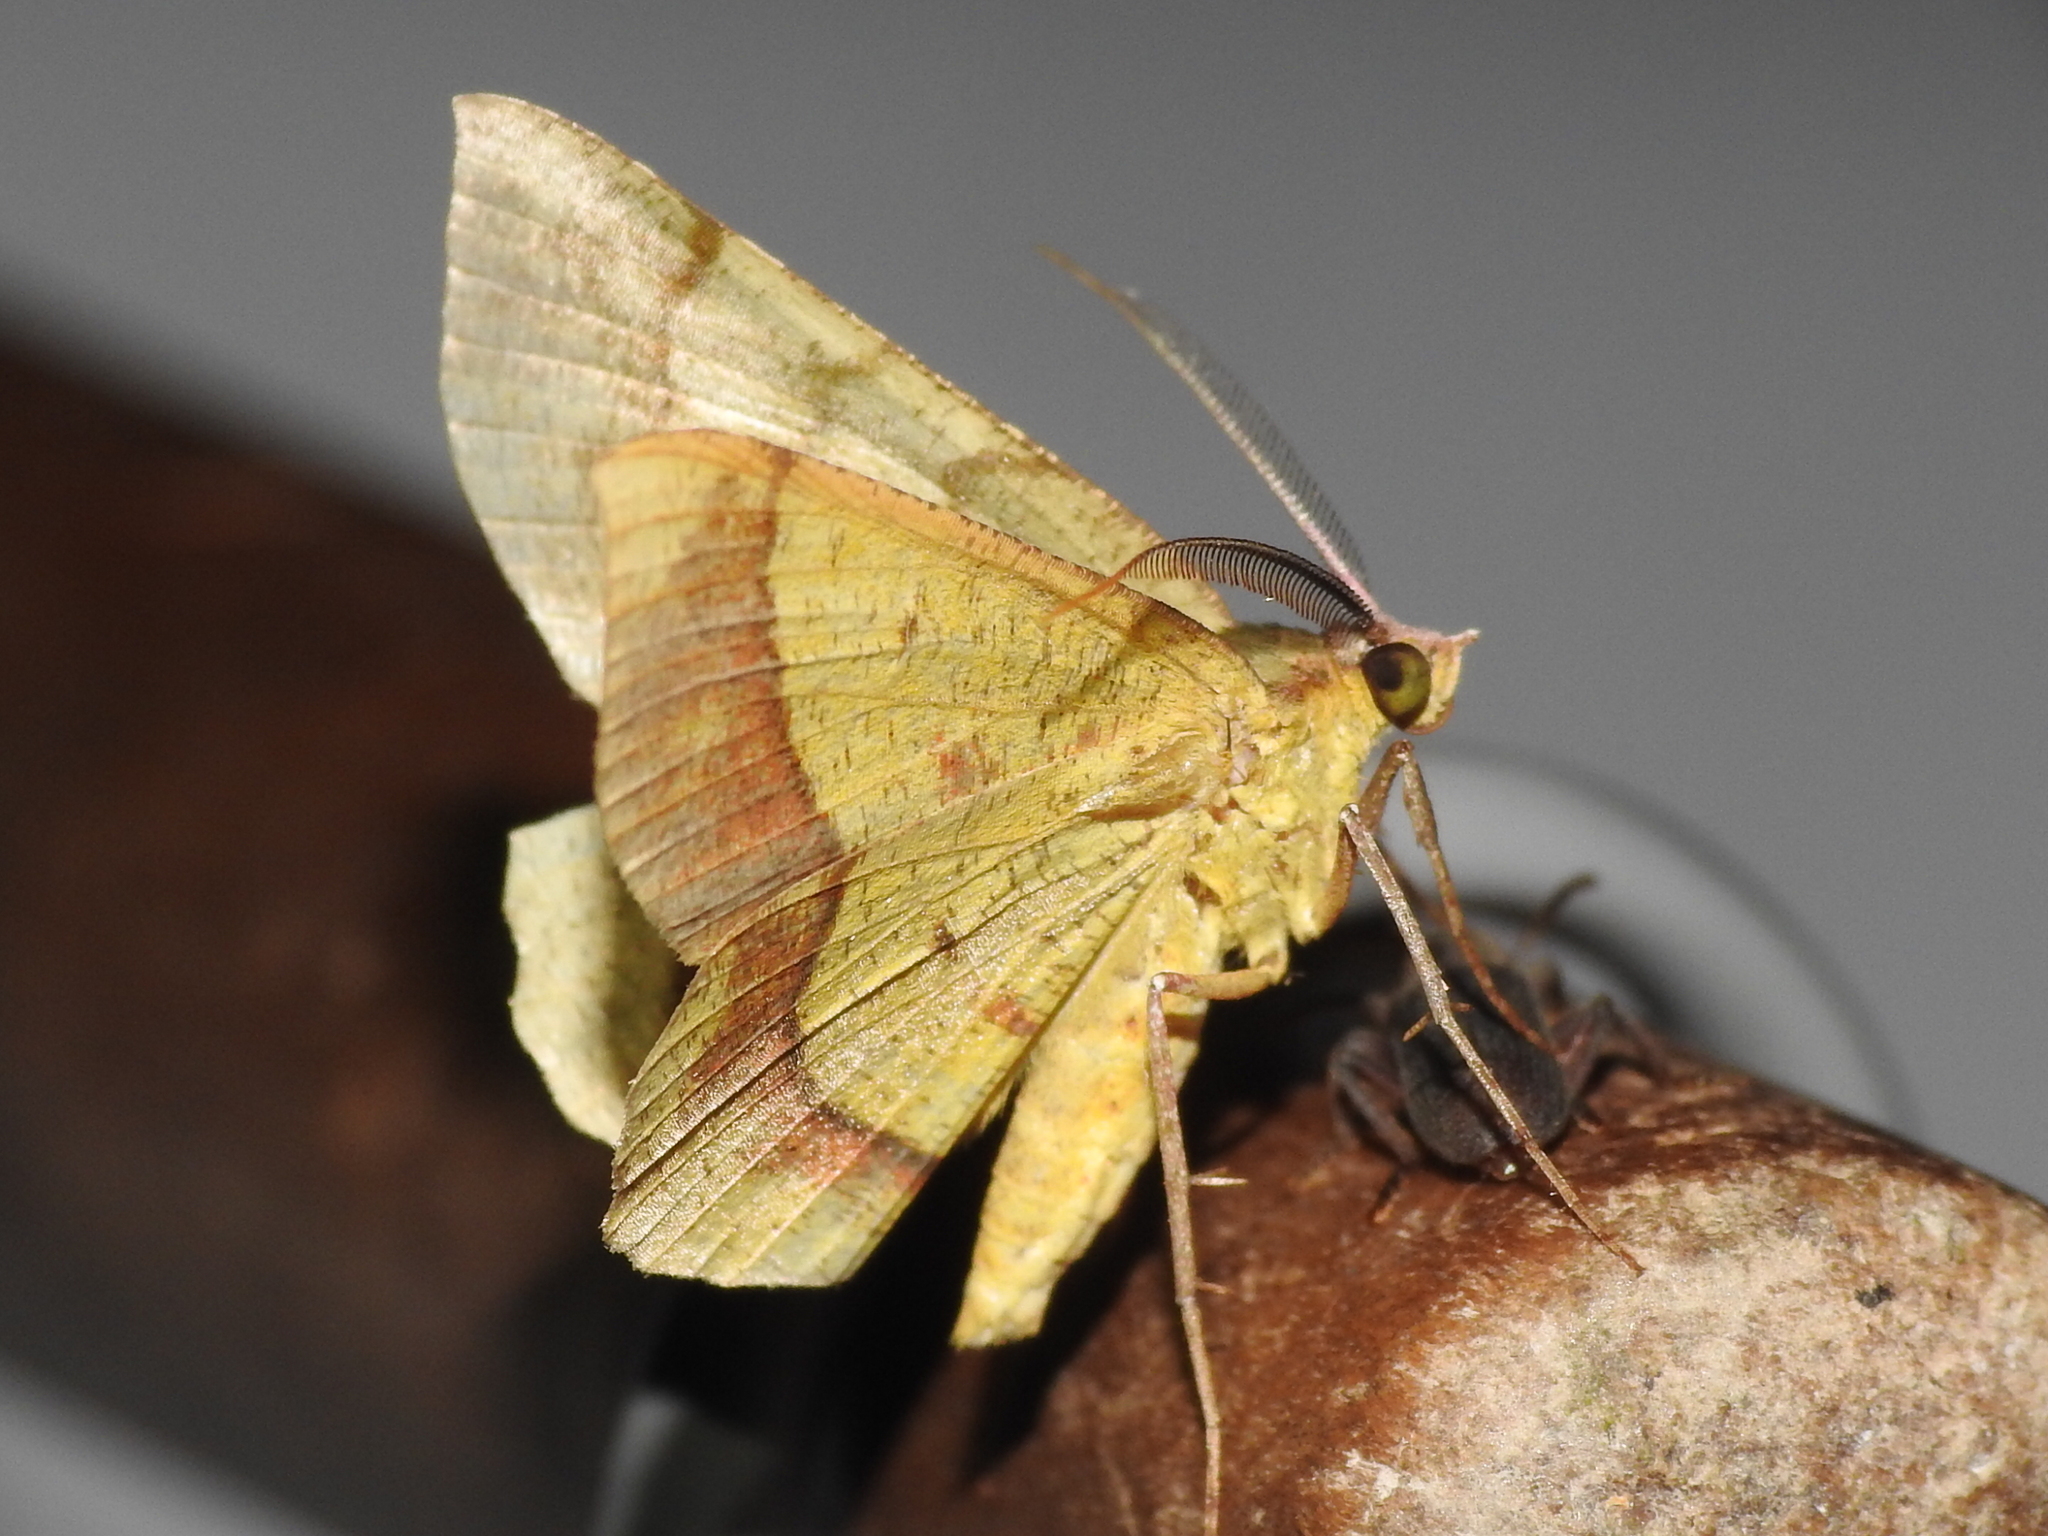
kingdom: Animalia
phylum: Arthropoda
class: Insecta
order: Lepidoptera
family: Geometridae
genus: Erastria
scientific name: Erastria decrepitaria
